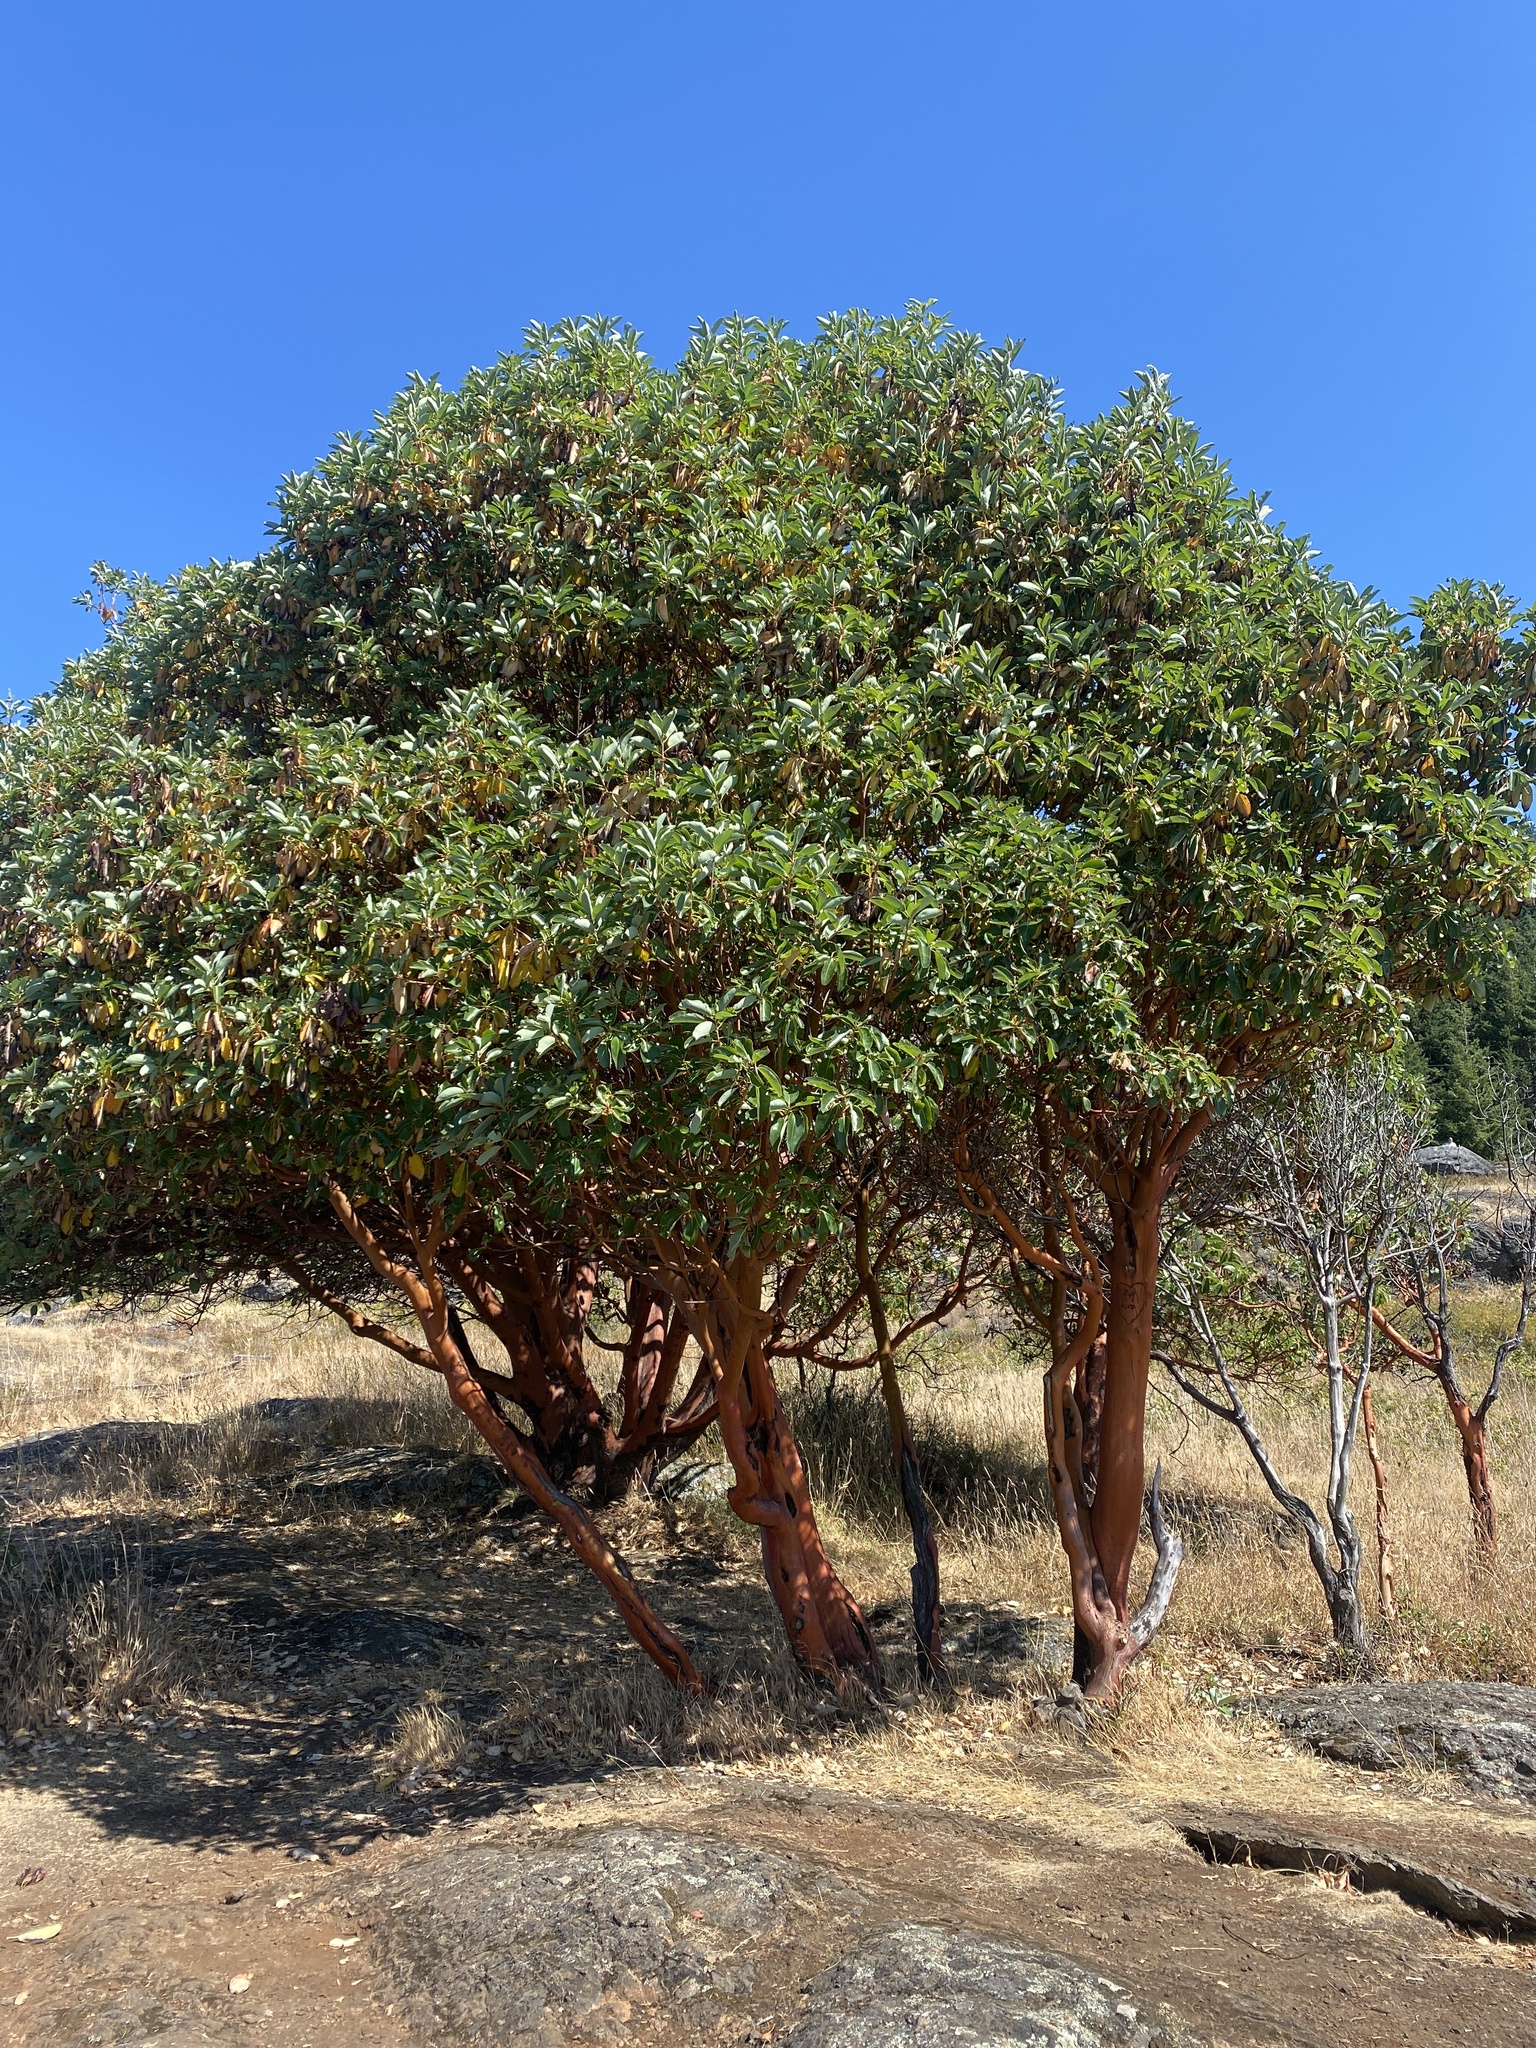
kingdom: Plantae
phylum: Tracheophyta
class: Magnoliopsida
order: Ericales
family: Ericaceae
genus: Arbutus
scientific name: Arbutus menziesii
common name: Pacific madrone
